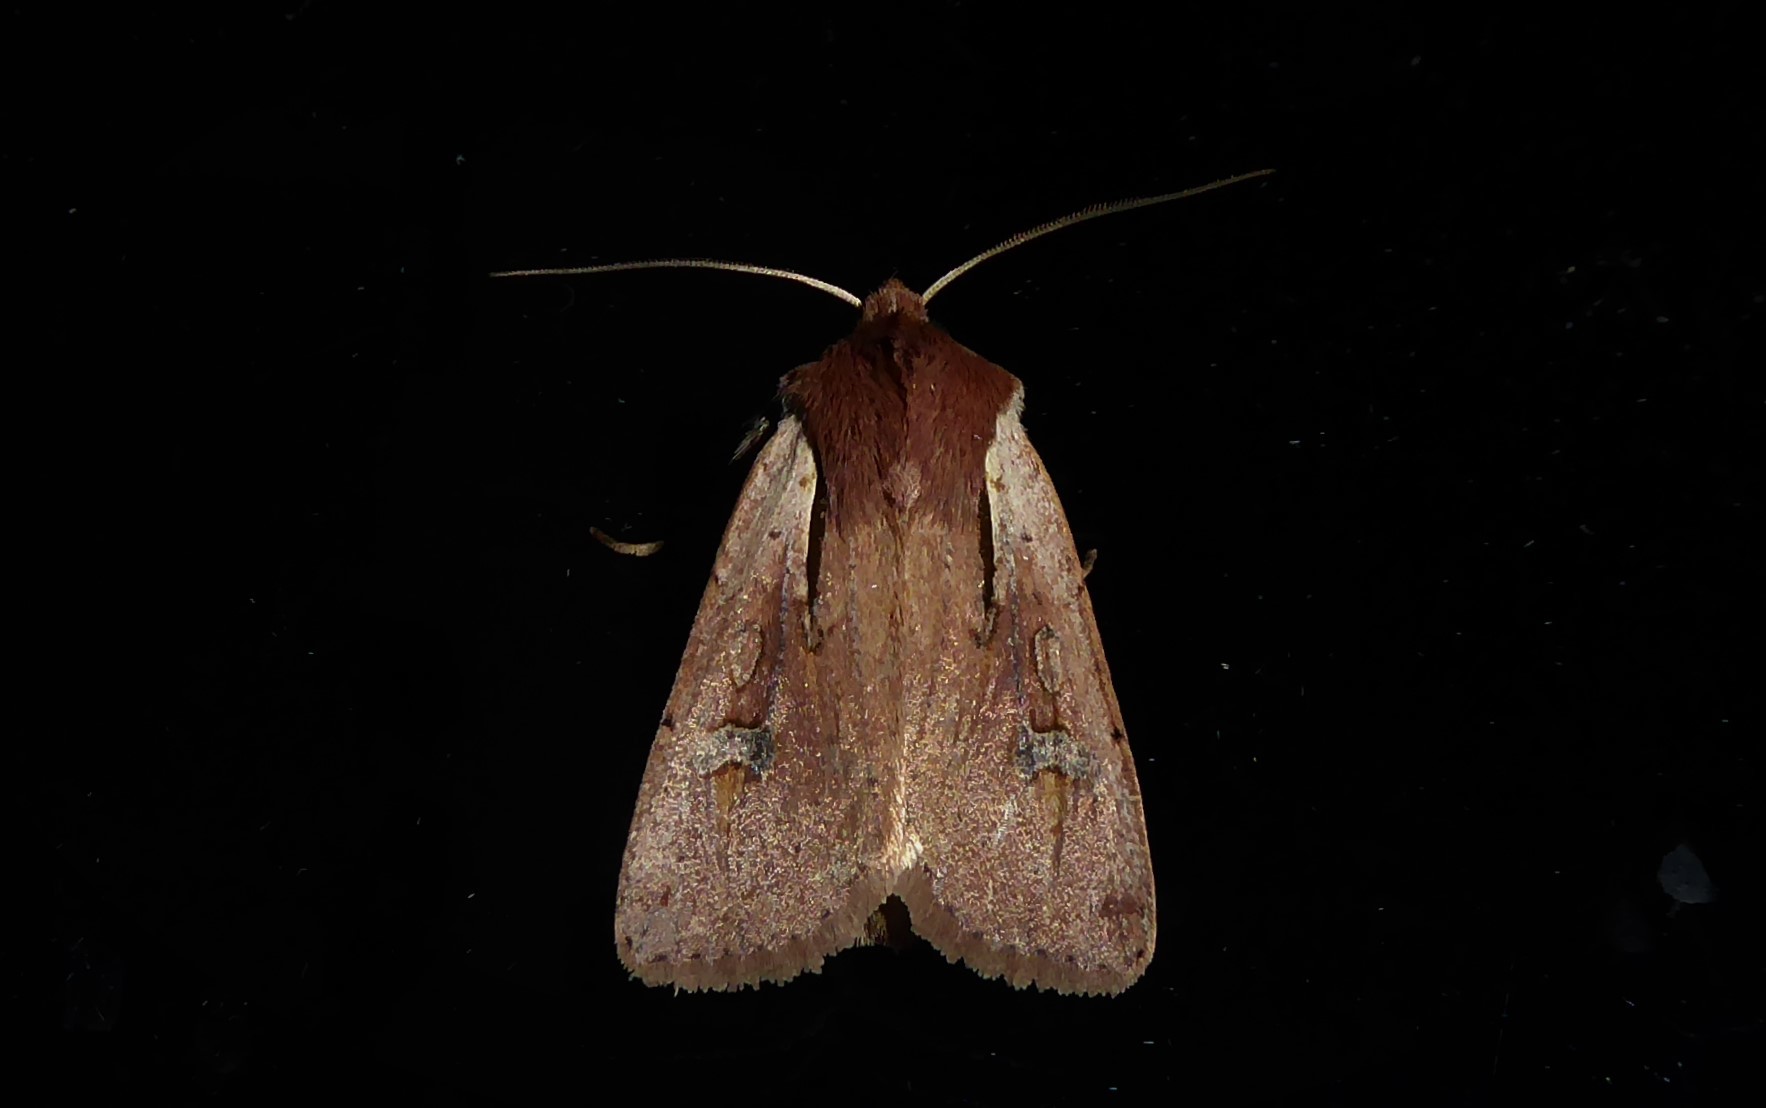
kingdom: Animalia
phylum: Arthropoda
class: Insecta
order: Lepidoptera
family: Noctuidae
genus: Ichneutica
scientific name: Ichneutica atristriga
